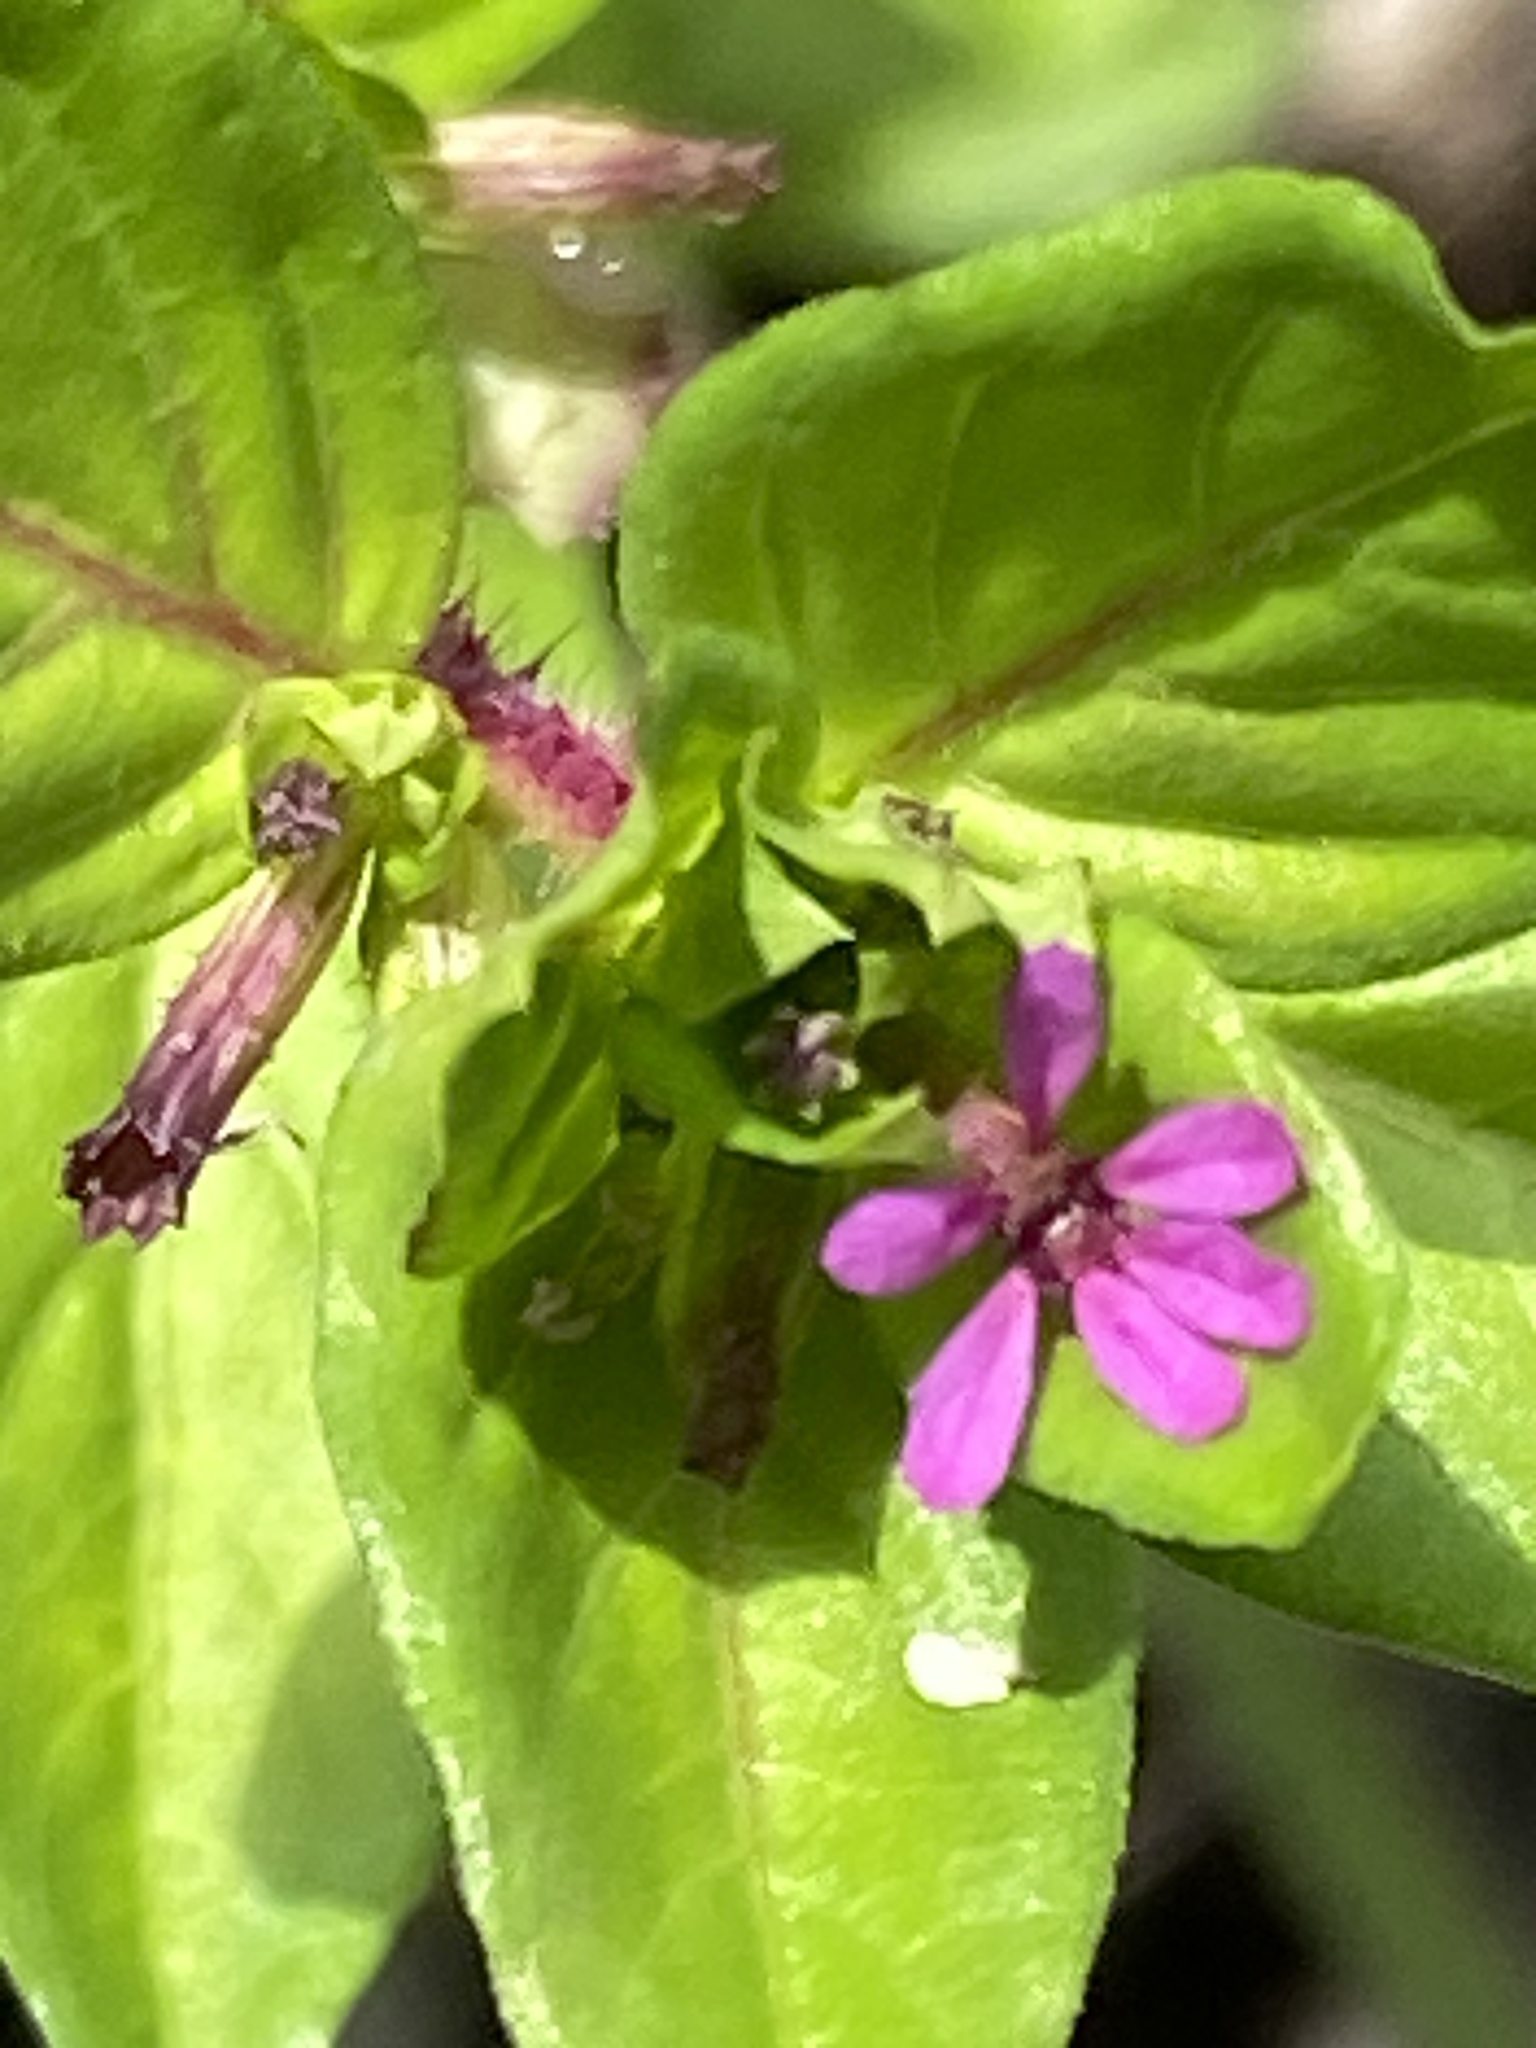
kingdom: Plantae
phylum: Tracheophyta
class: Magnoliopsida
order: Myrtales
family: Lythraceae
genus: Cuphea
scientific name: Cuphea carthagenensis
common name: Colombian waxweed
